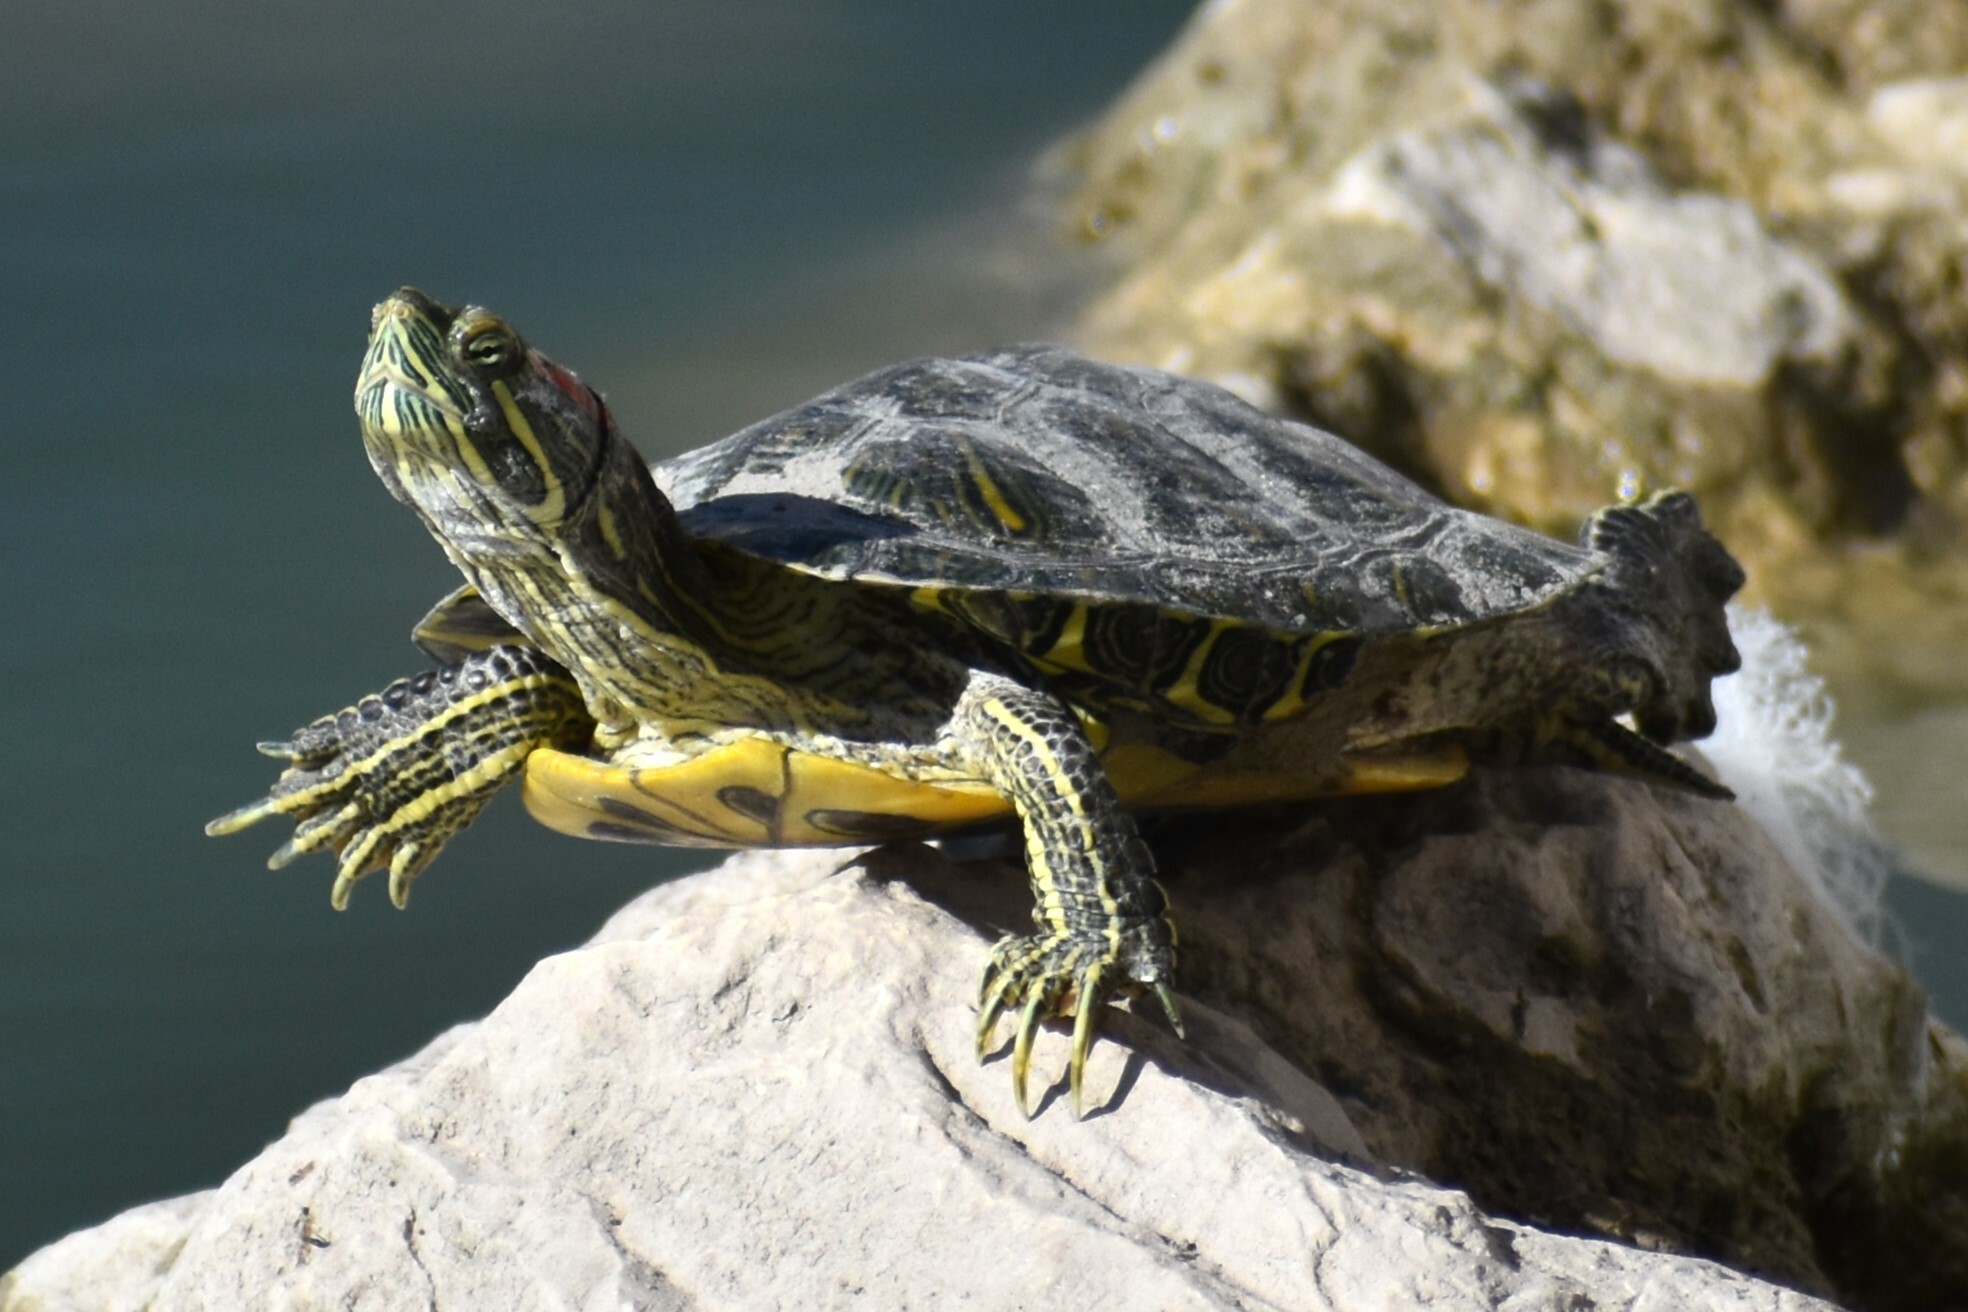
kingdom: Animalia
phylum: Chordata
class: Testudines
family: Emydidae
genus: Trachemys
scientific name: Trachemys scripta
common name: Slider
